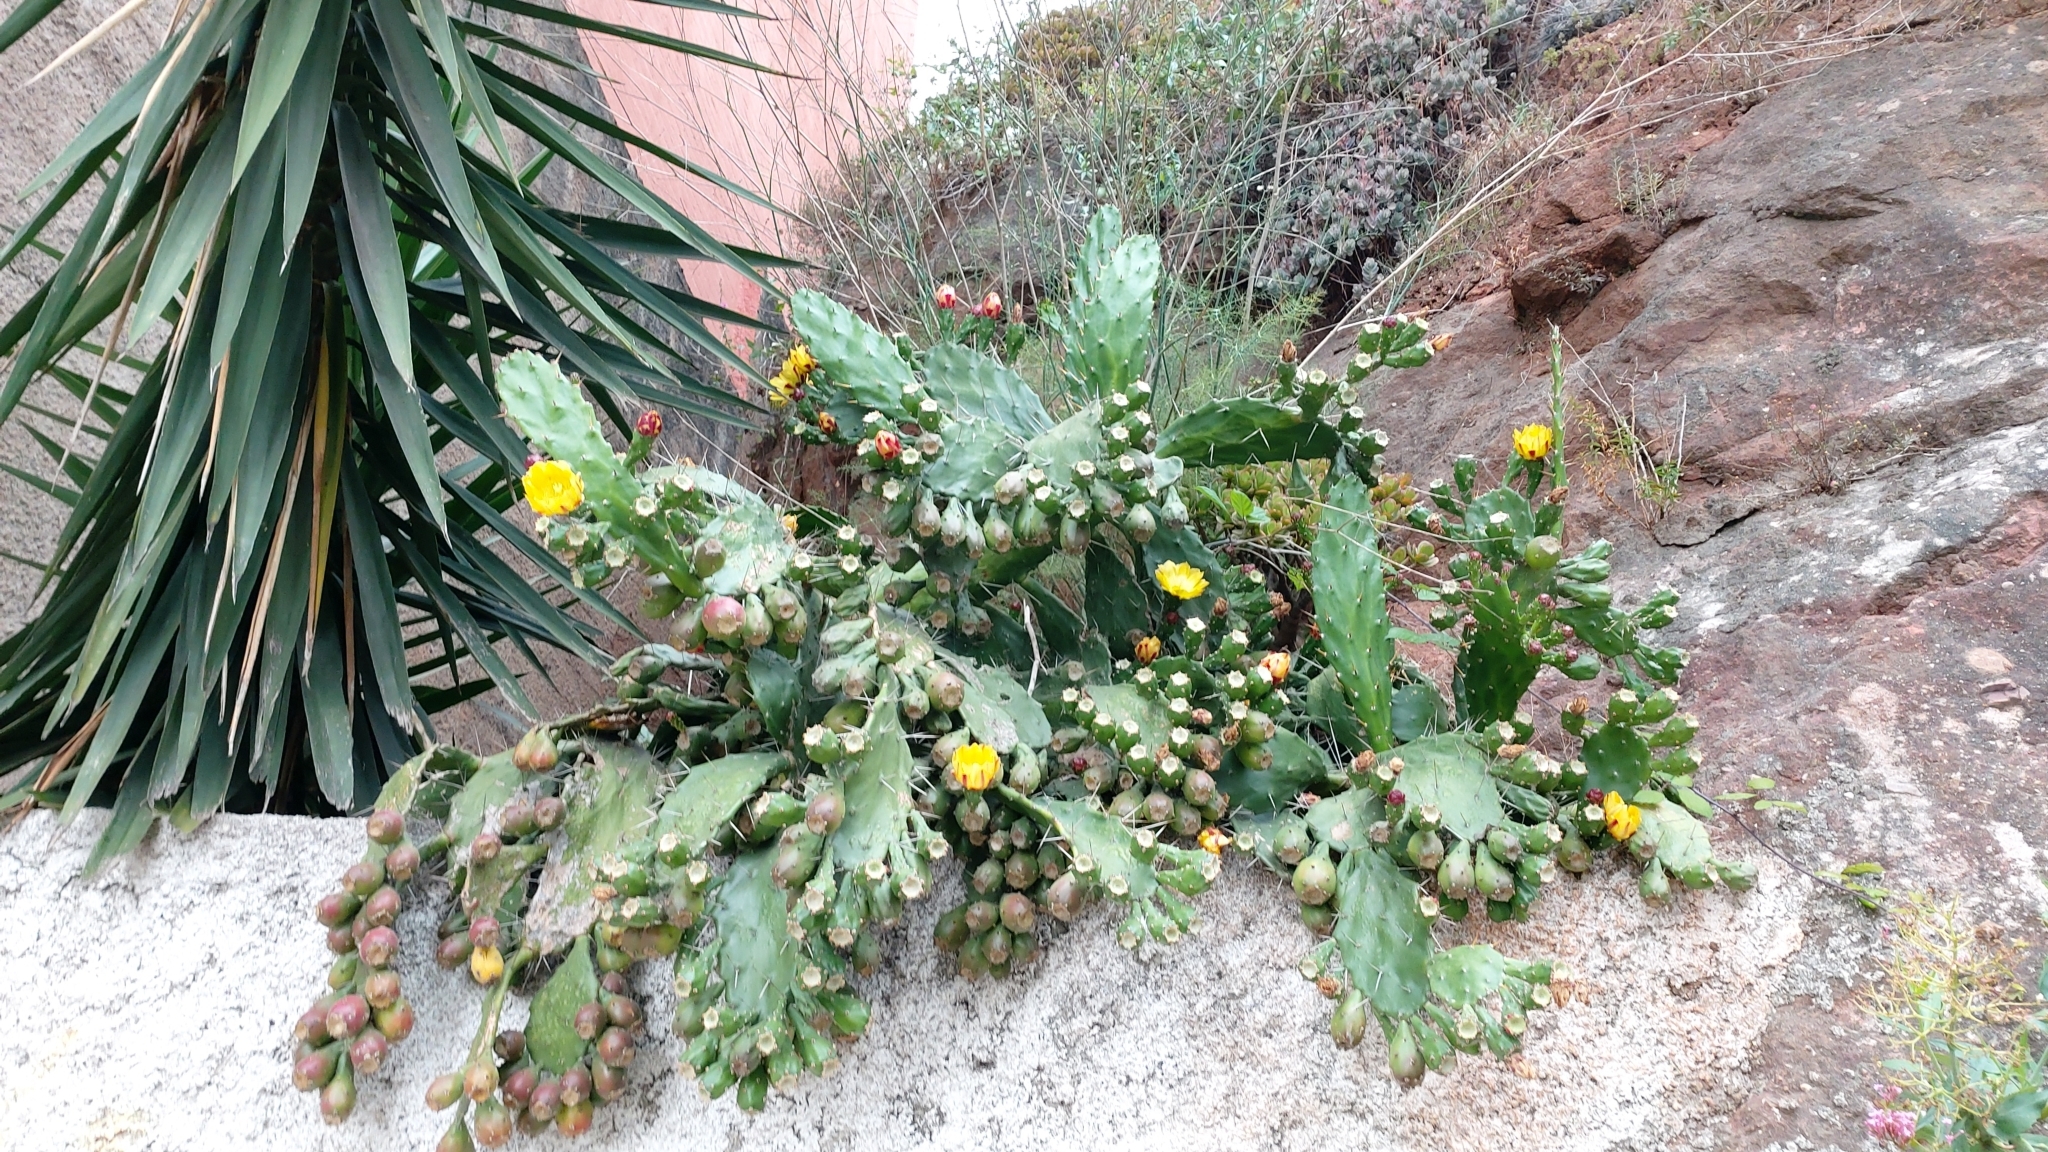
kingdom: Plantae
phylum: Tracheophyta
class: Magnoliopsida
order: Caryophyllales
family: Cactaceae
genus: Opuntia
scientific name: Opuntia monacantha
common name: Common pricklypear
